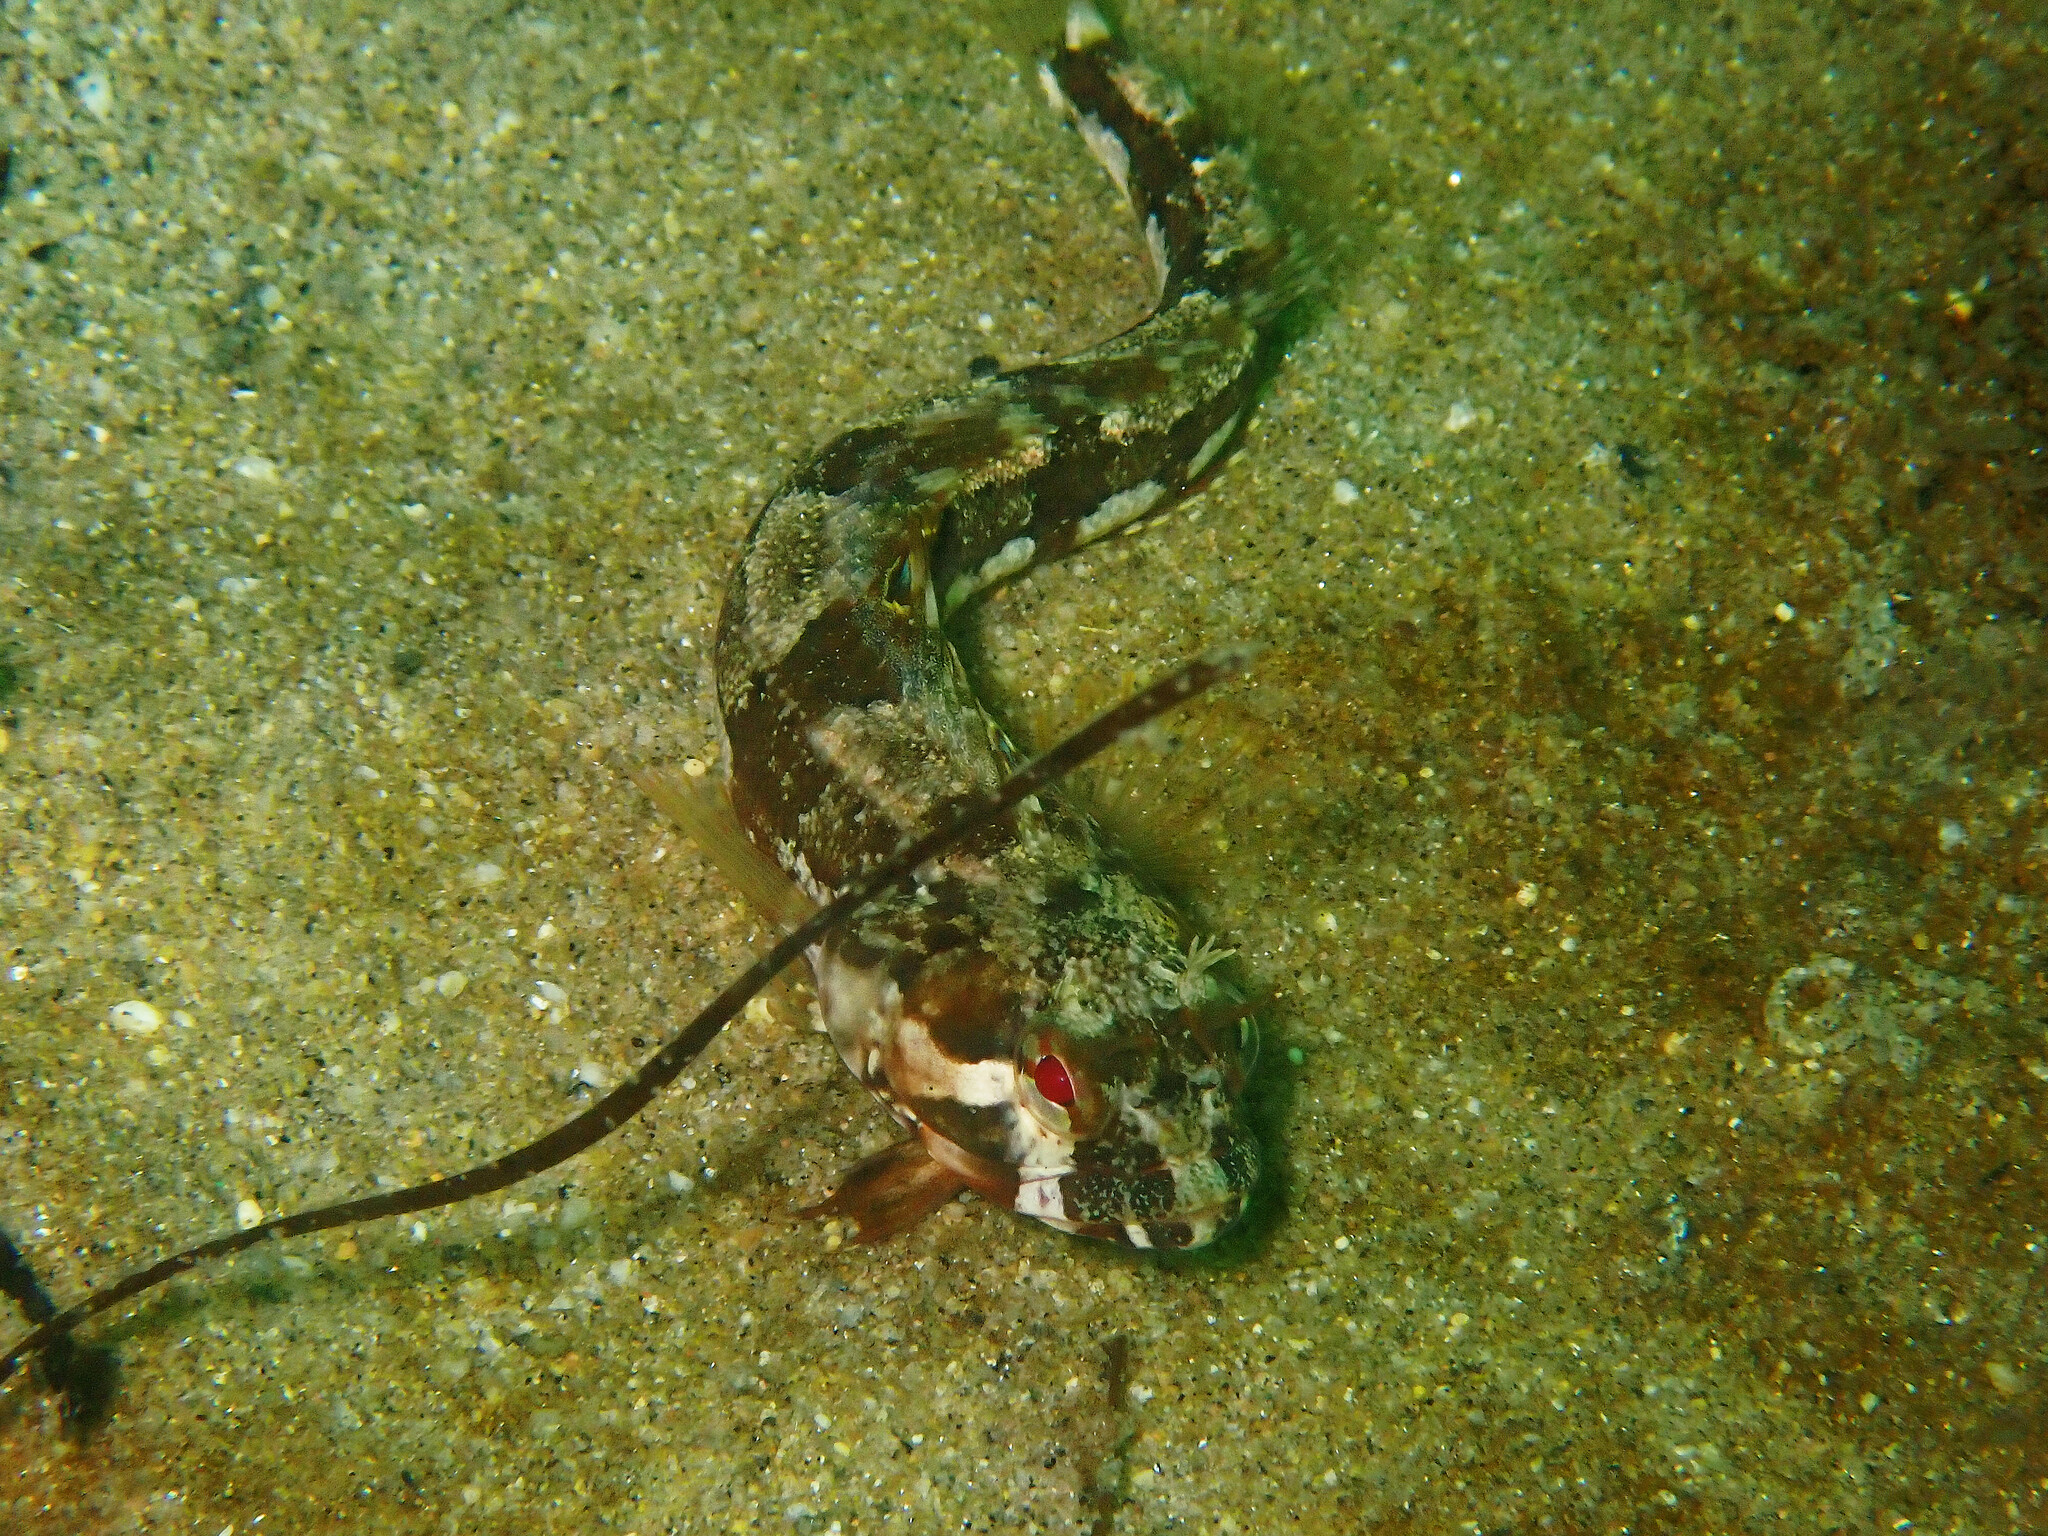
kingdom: Animalia
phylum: Chordata
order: Perciformes
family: Chaenopsidae
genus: Neoclinus
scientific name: Neoclinus blanchardi
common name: Sarcastic fringehead
